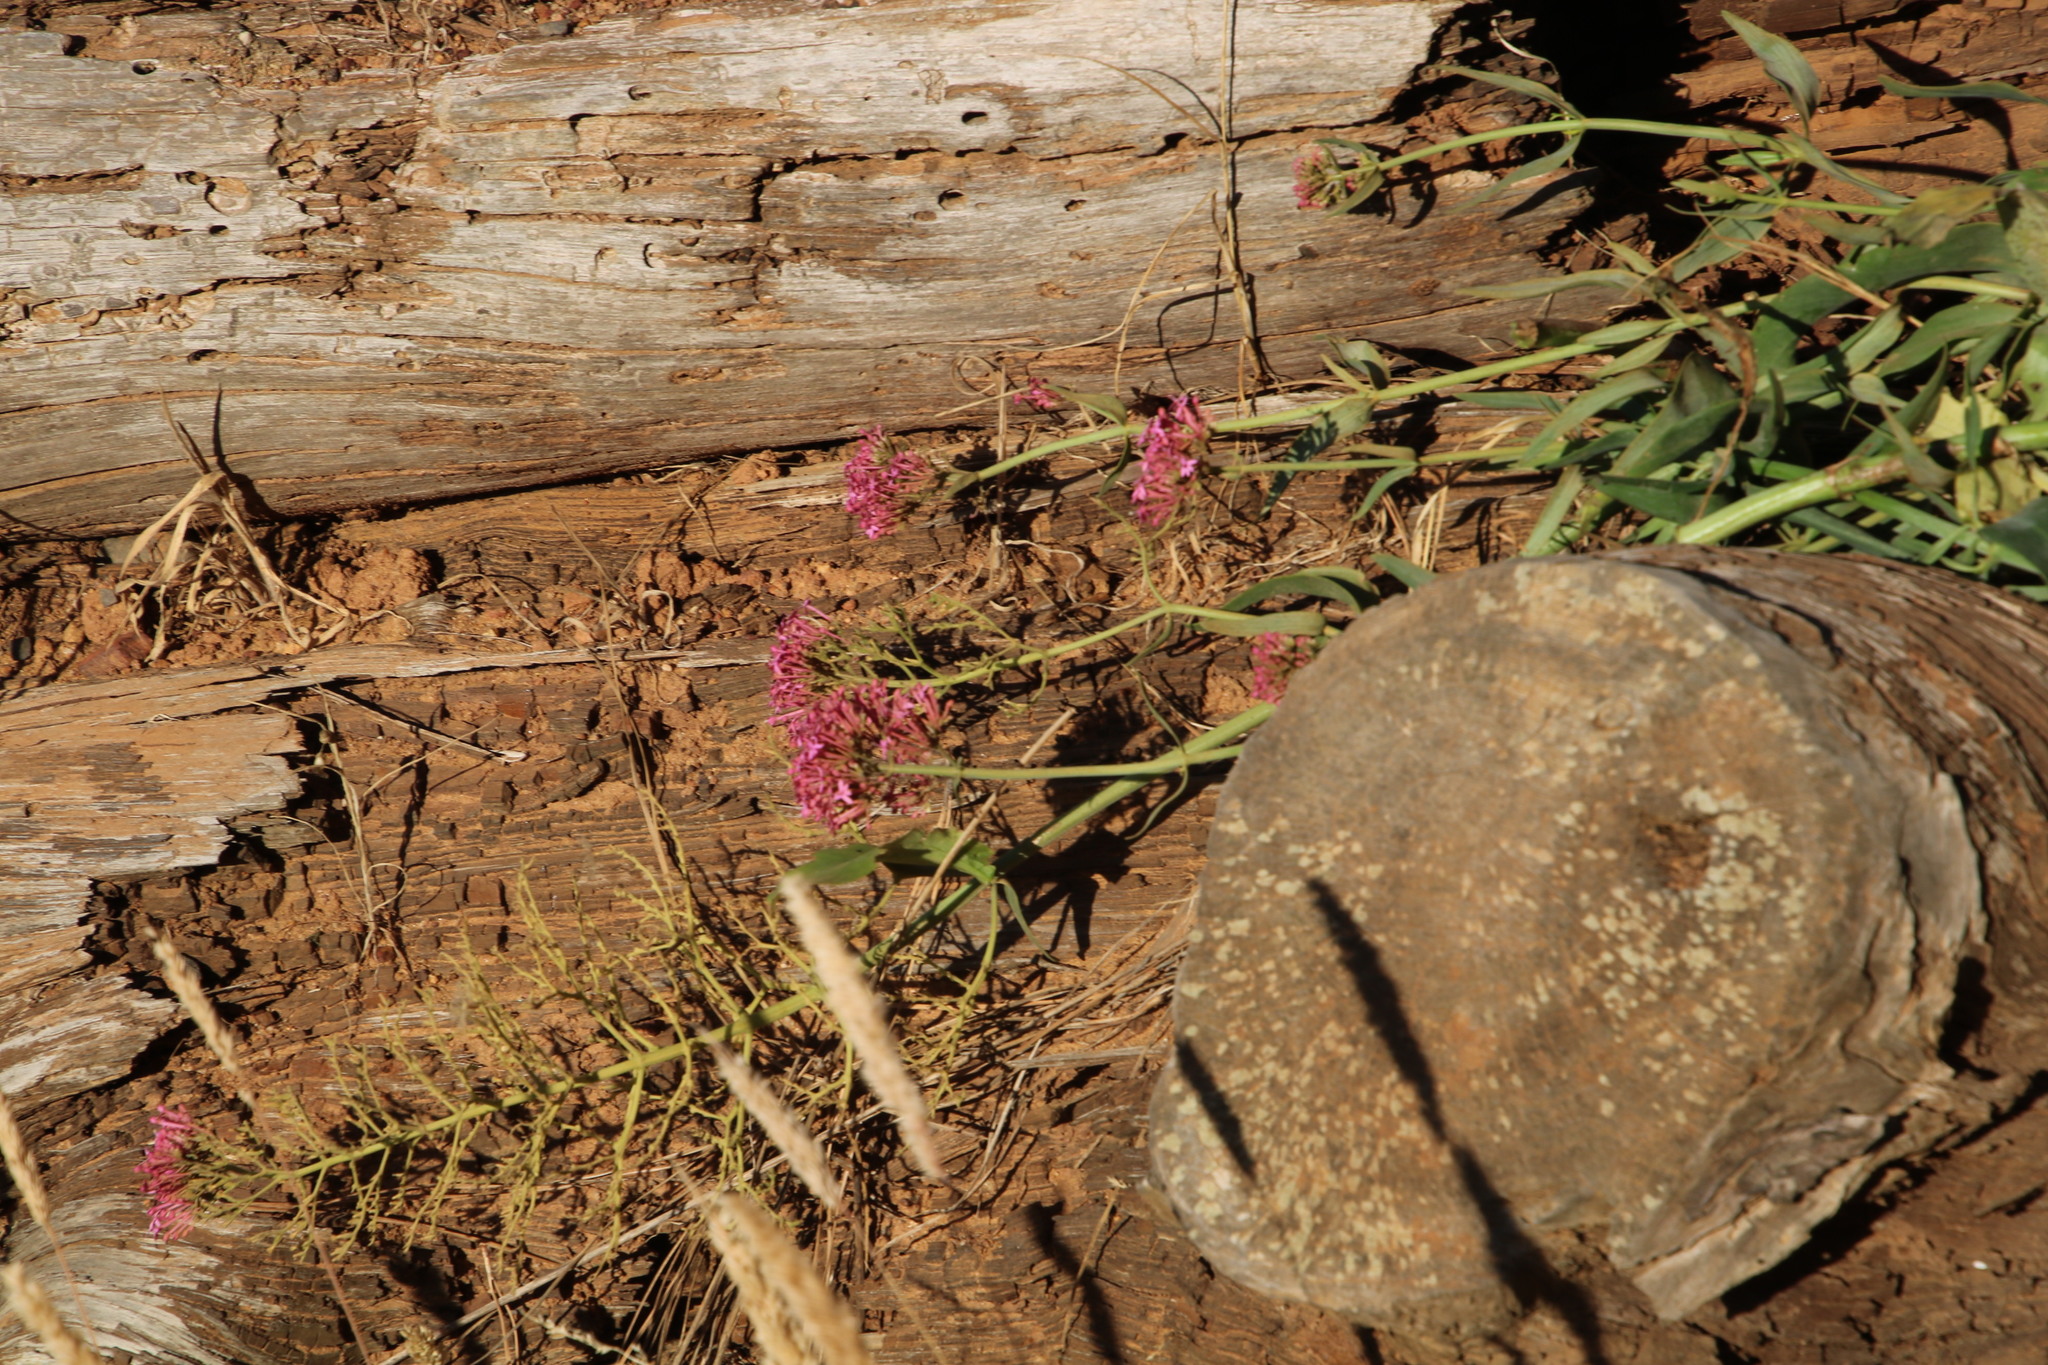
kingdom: Plantae
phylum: Tracheophyta
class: Magnoliopsida
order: Dipsacales
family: Caprifoliaceae
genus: Centranthus
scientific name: Centranthus ruber
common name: Red valerian
